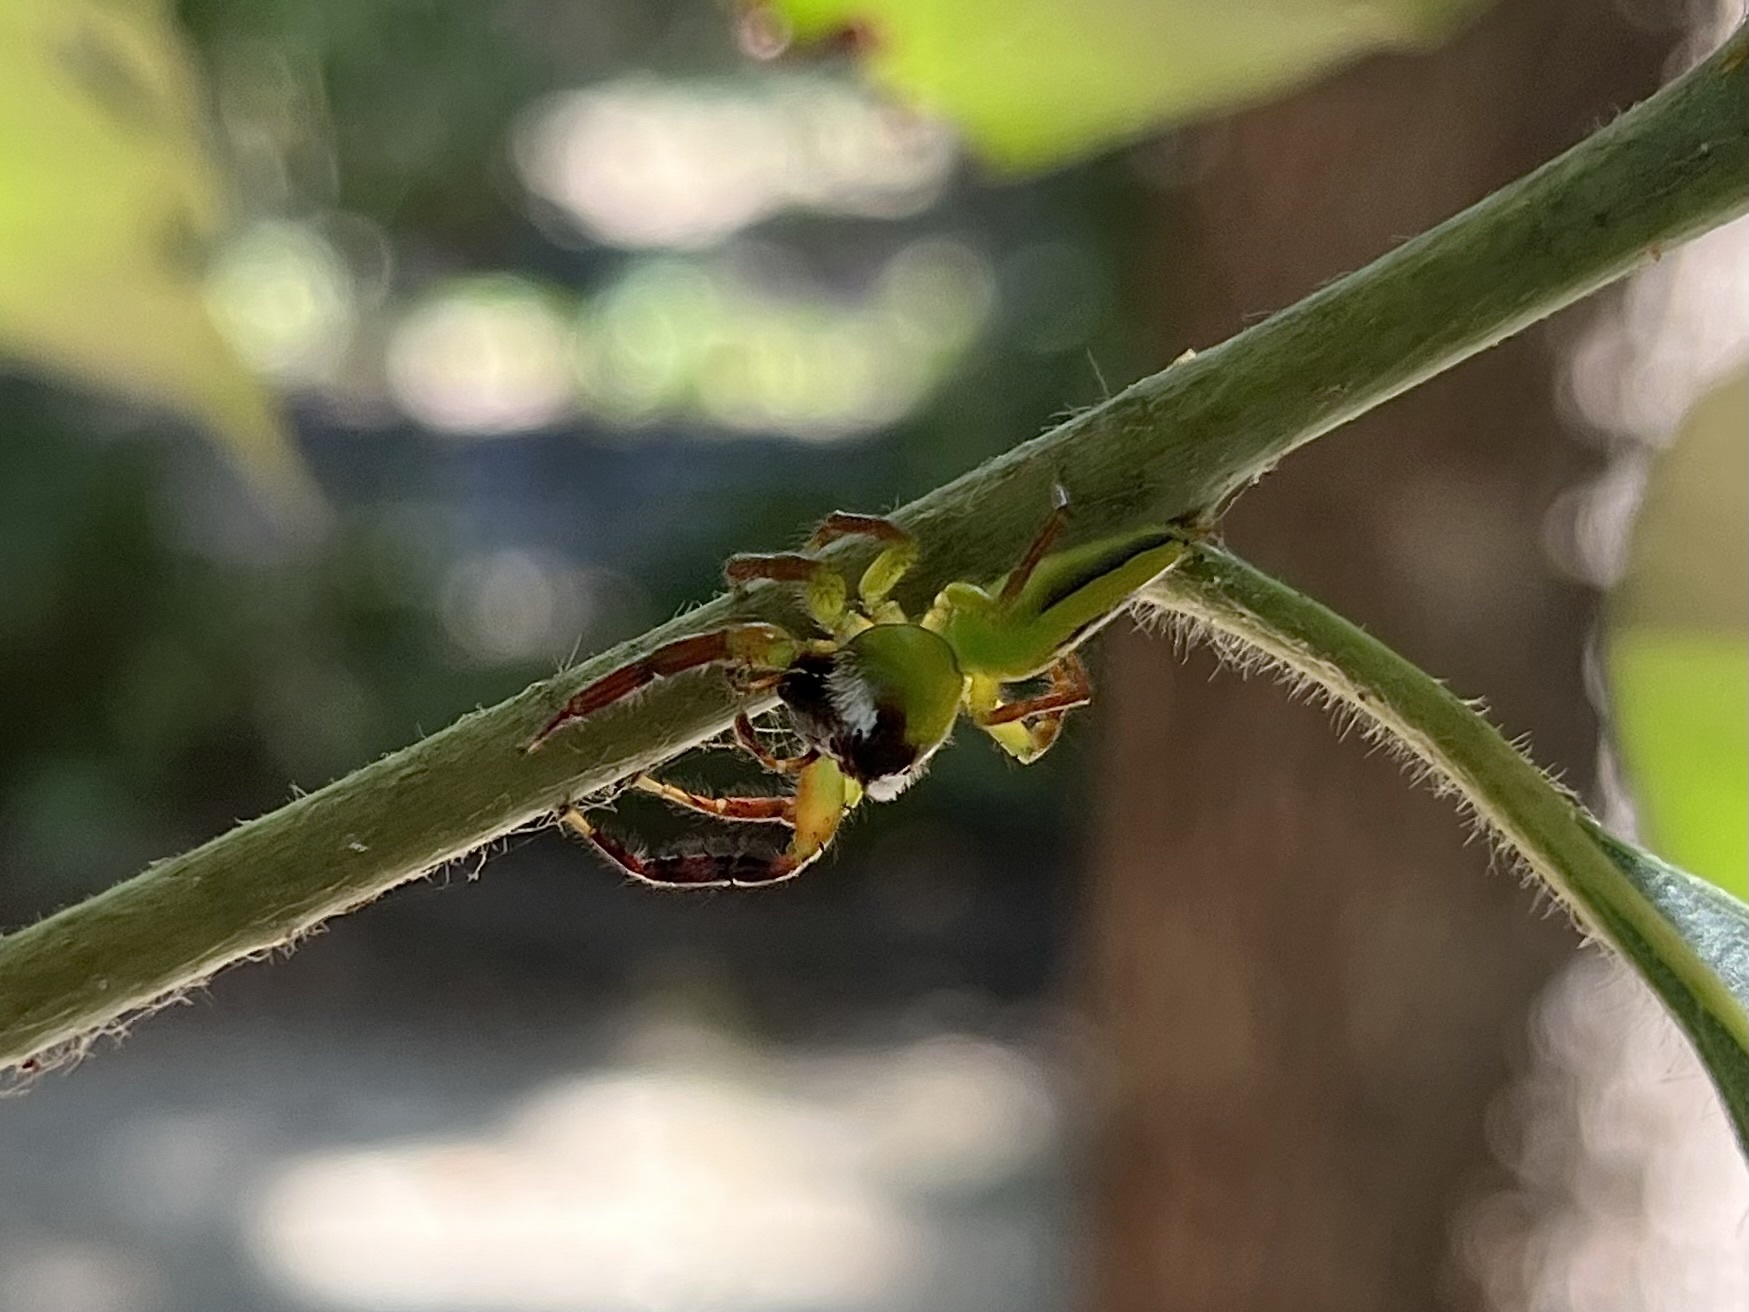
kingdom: Animalia
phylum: Arthropoda
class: Arachnida
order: Araneae
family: Salticidae
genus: Mopsus
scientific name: Mopsus mormon
